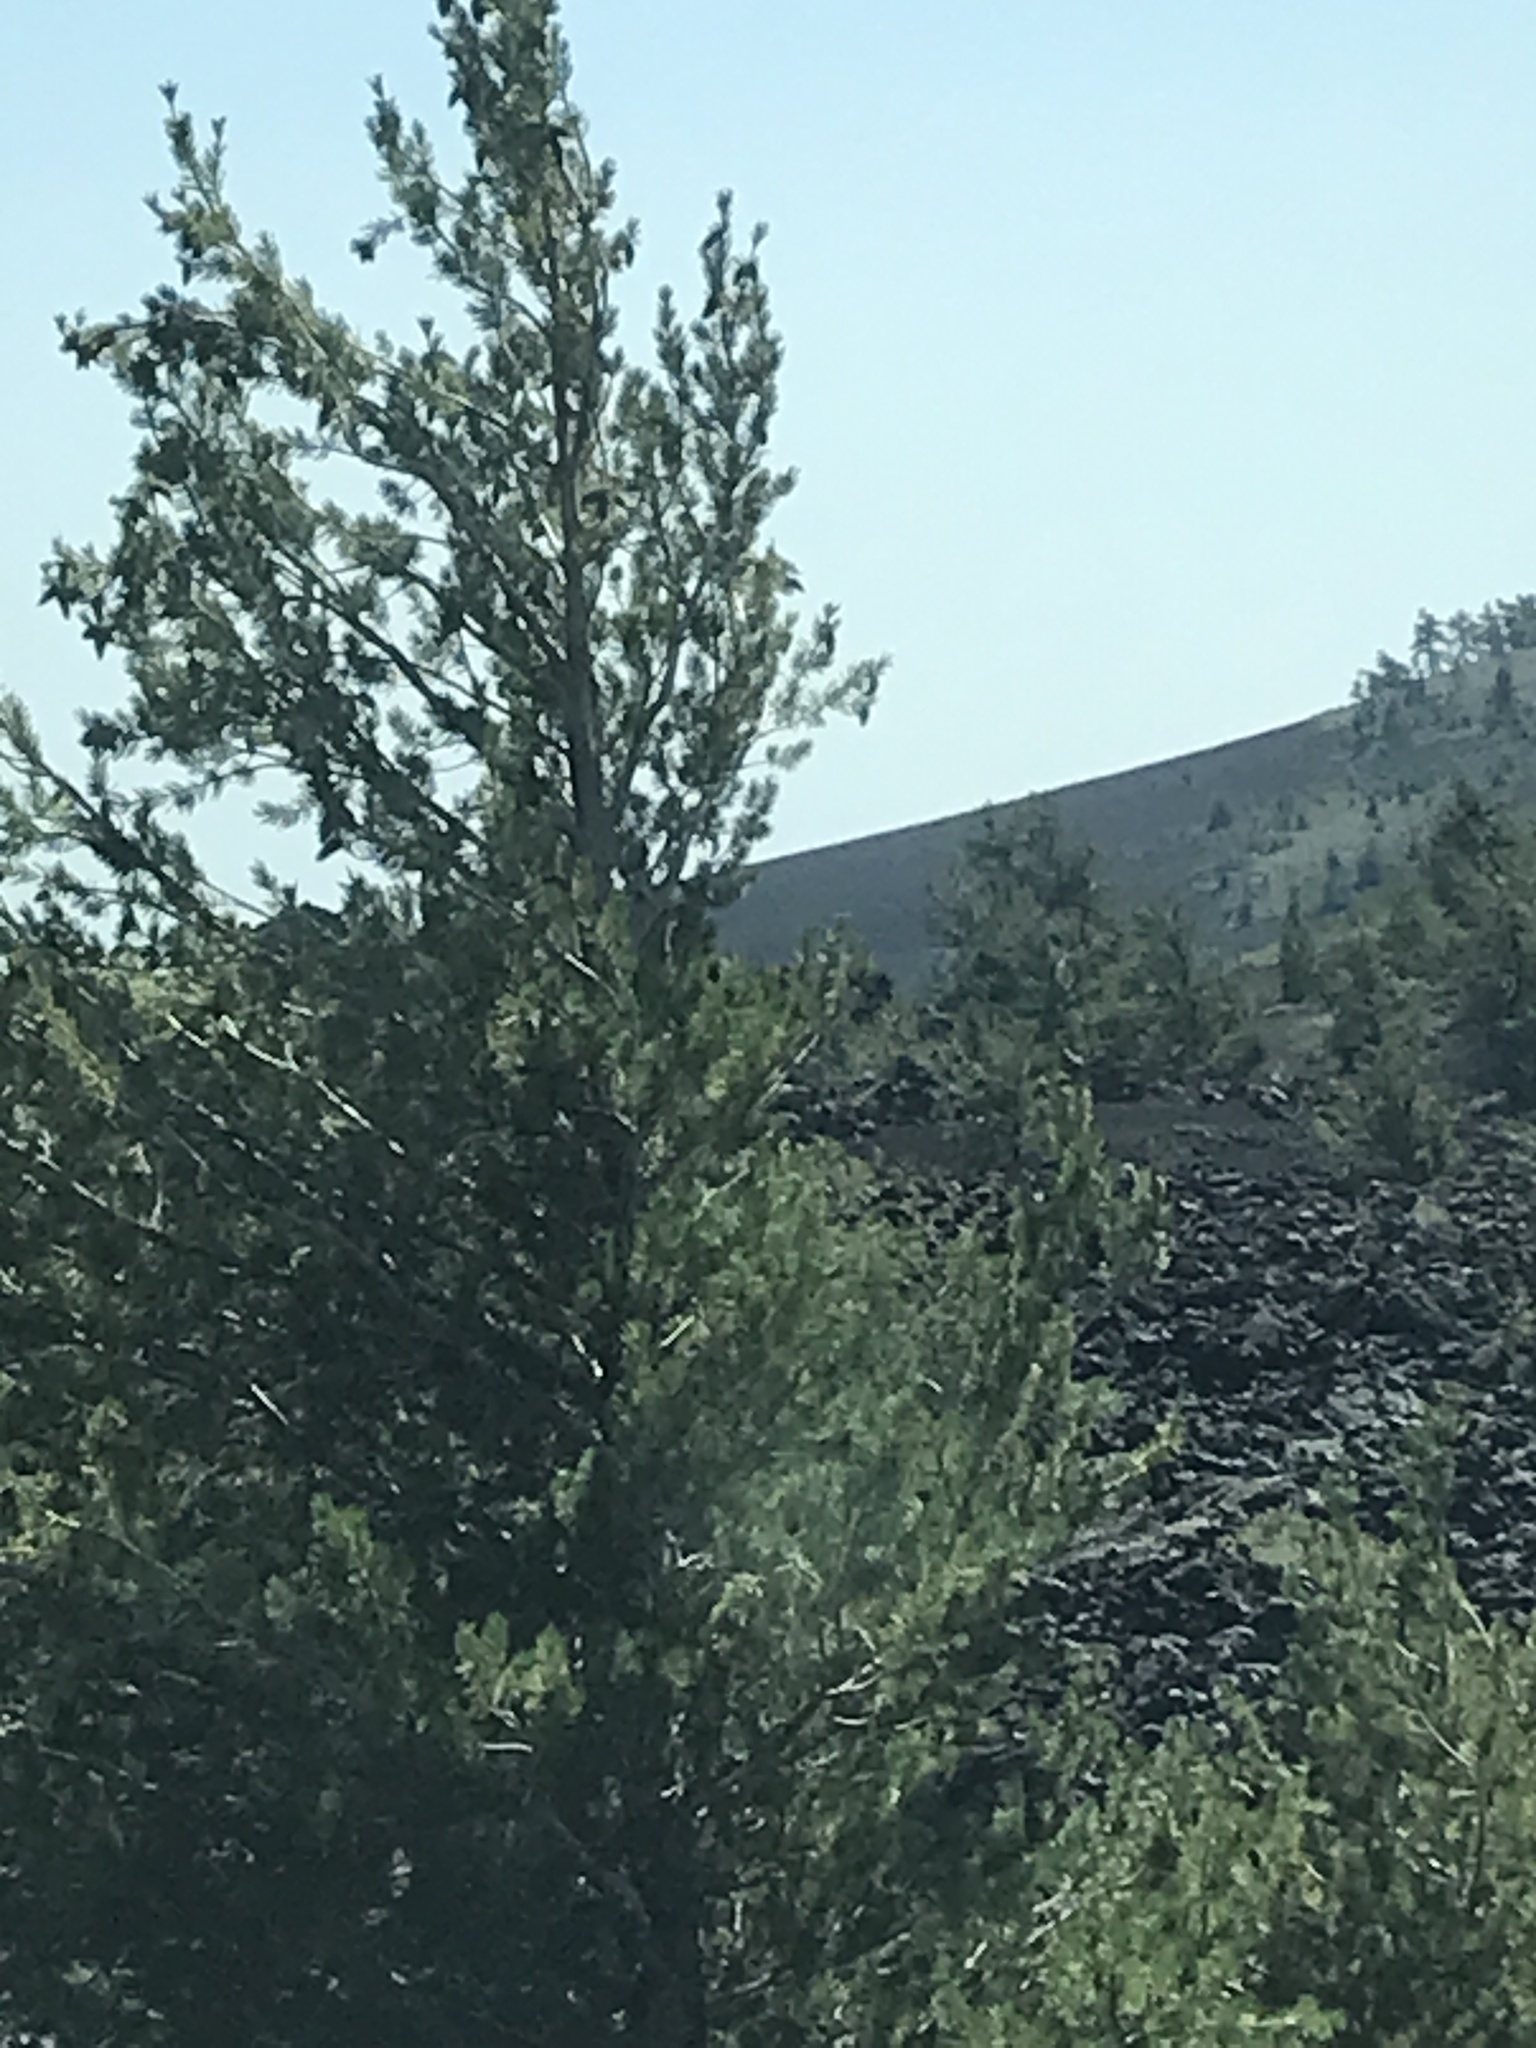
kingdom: Plantae
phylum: Tracheophyta
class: Pinopsida
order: Pinales
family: Pinaceae
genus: Pinus
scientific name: Pinus flexilis
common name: Limber pine
